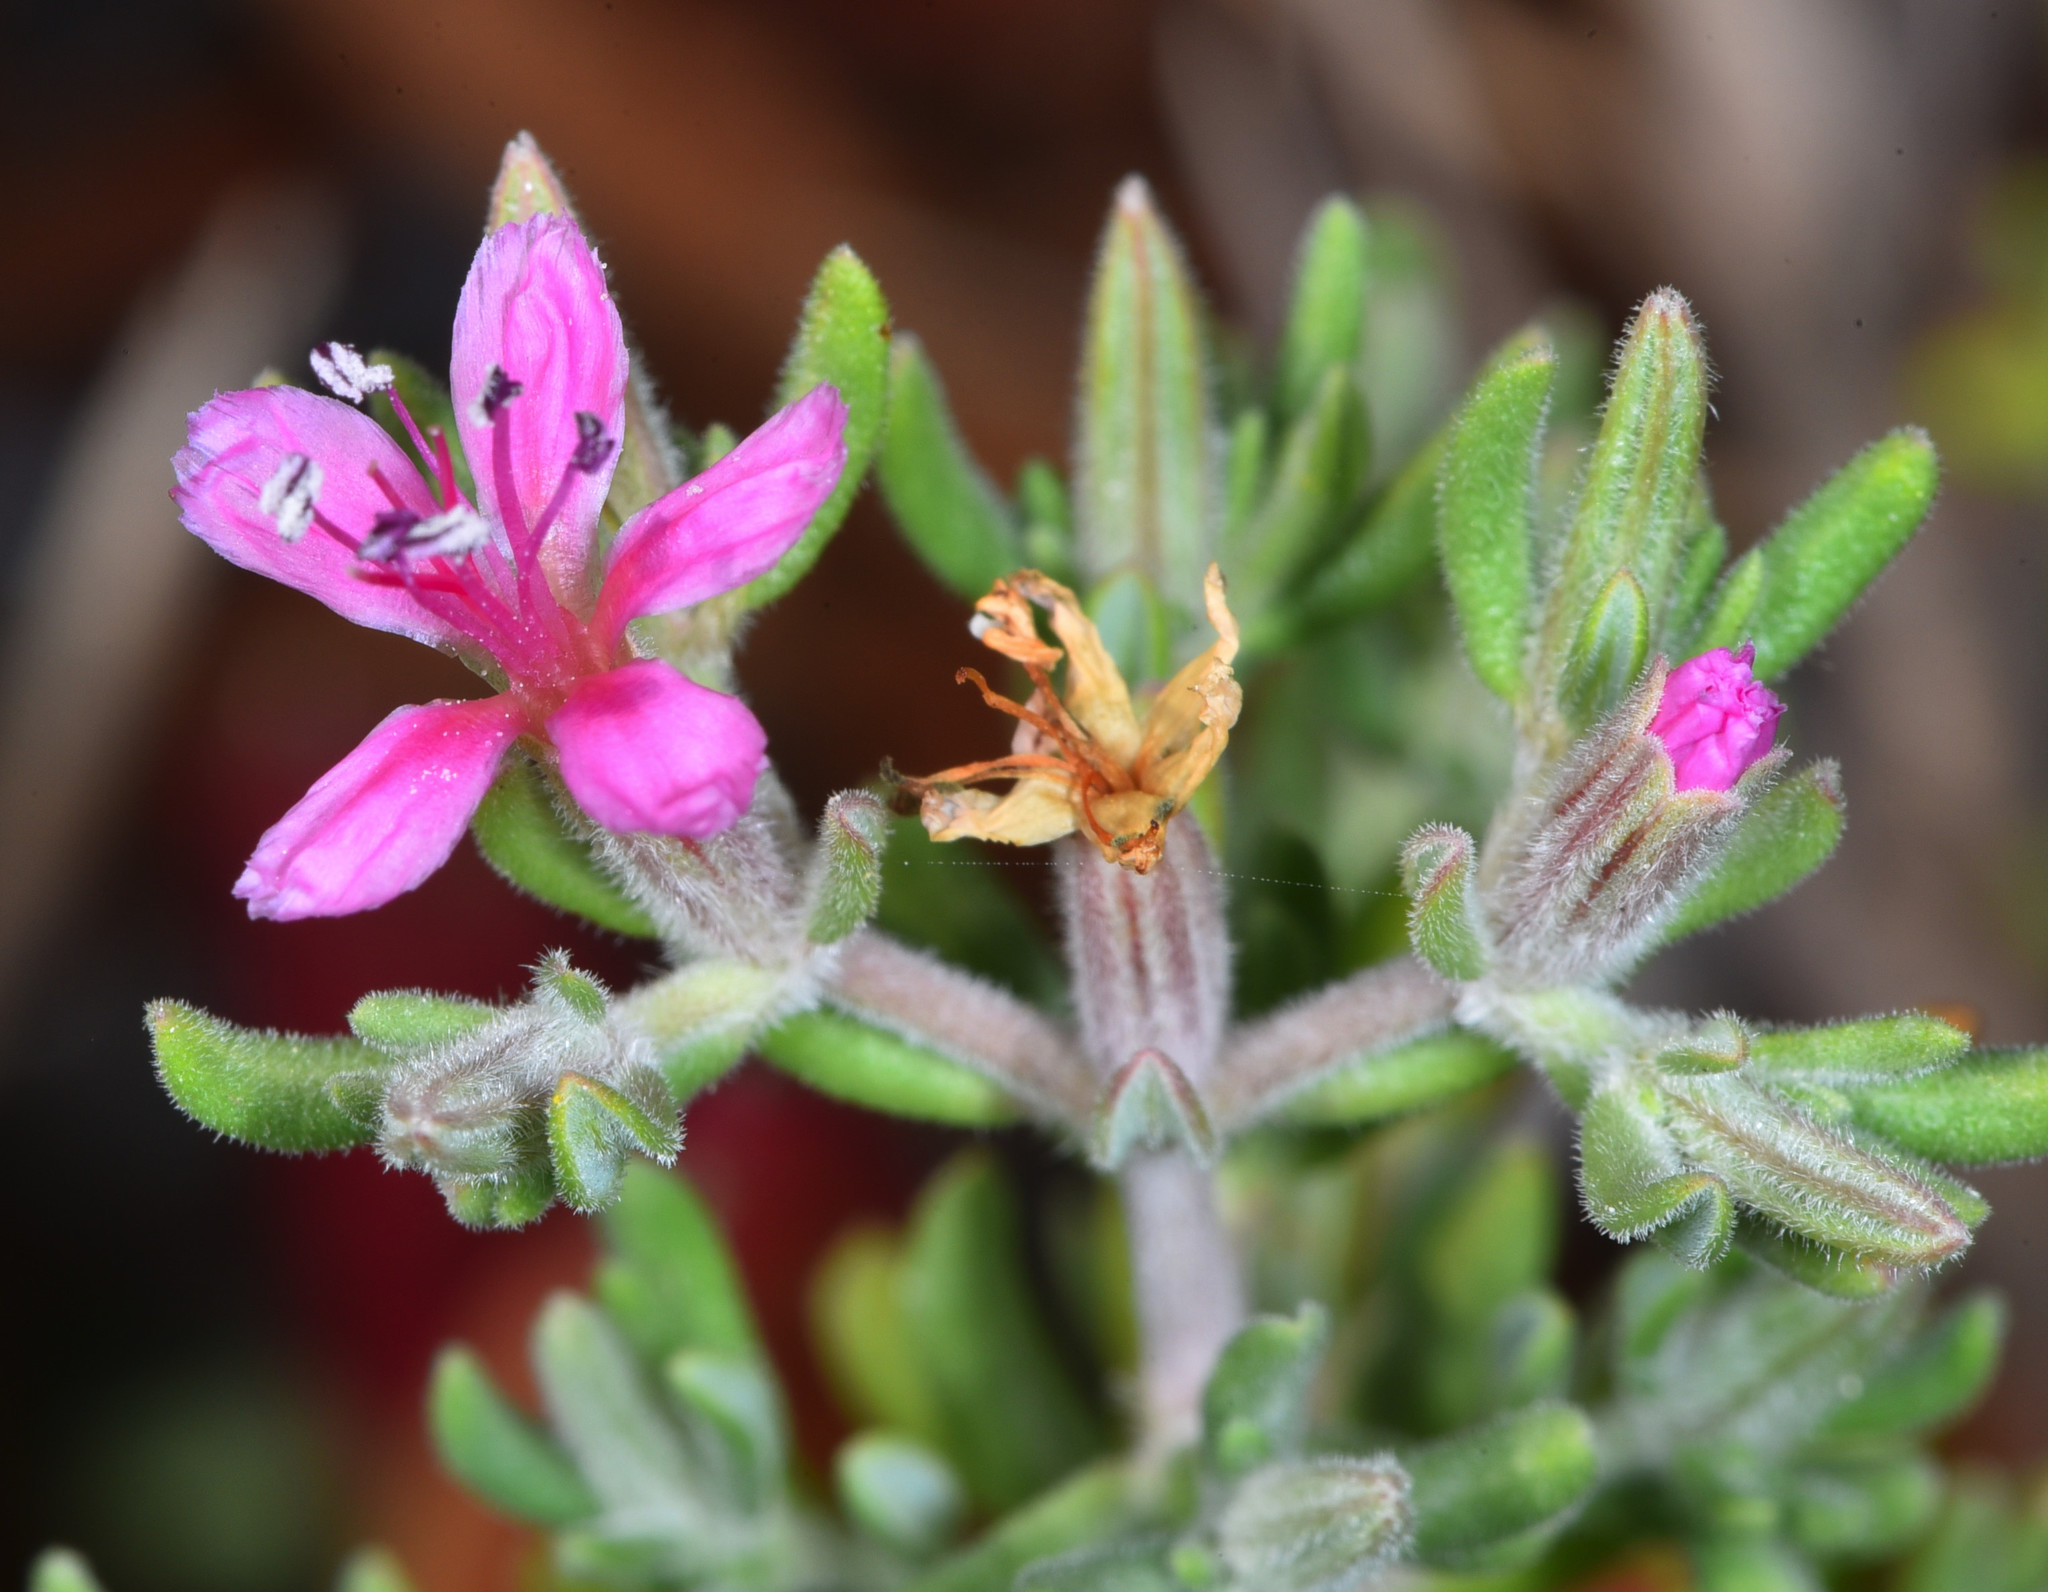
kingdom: Plantae
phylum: Tracheophyta
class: Magnoliopsida
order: Caryophyllales
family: Frankeniaceae
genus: Frankenia
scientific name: Frankenia salina
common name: Alkali seaheath
